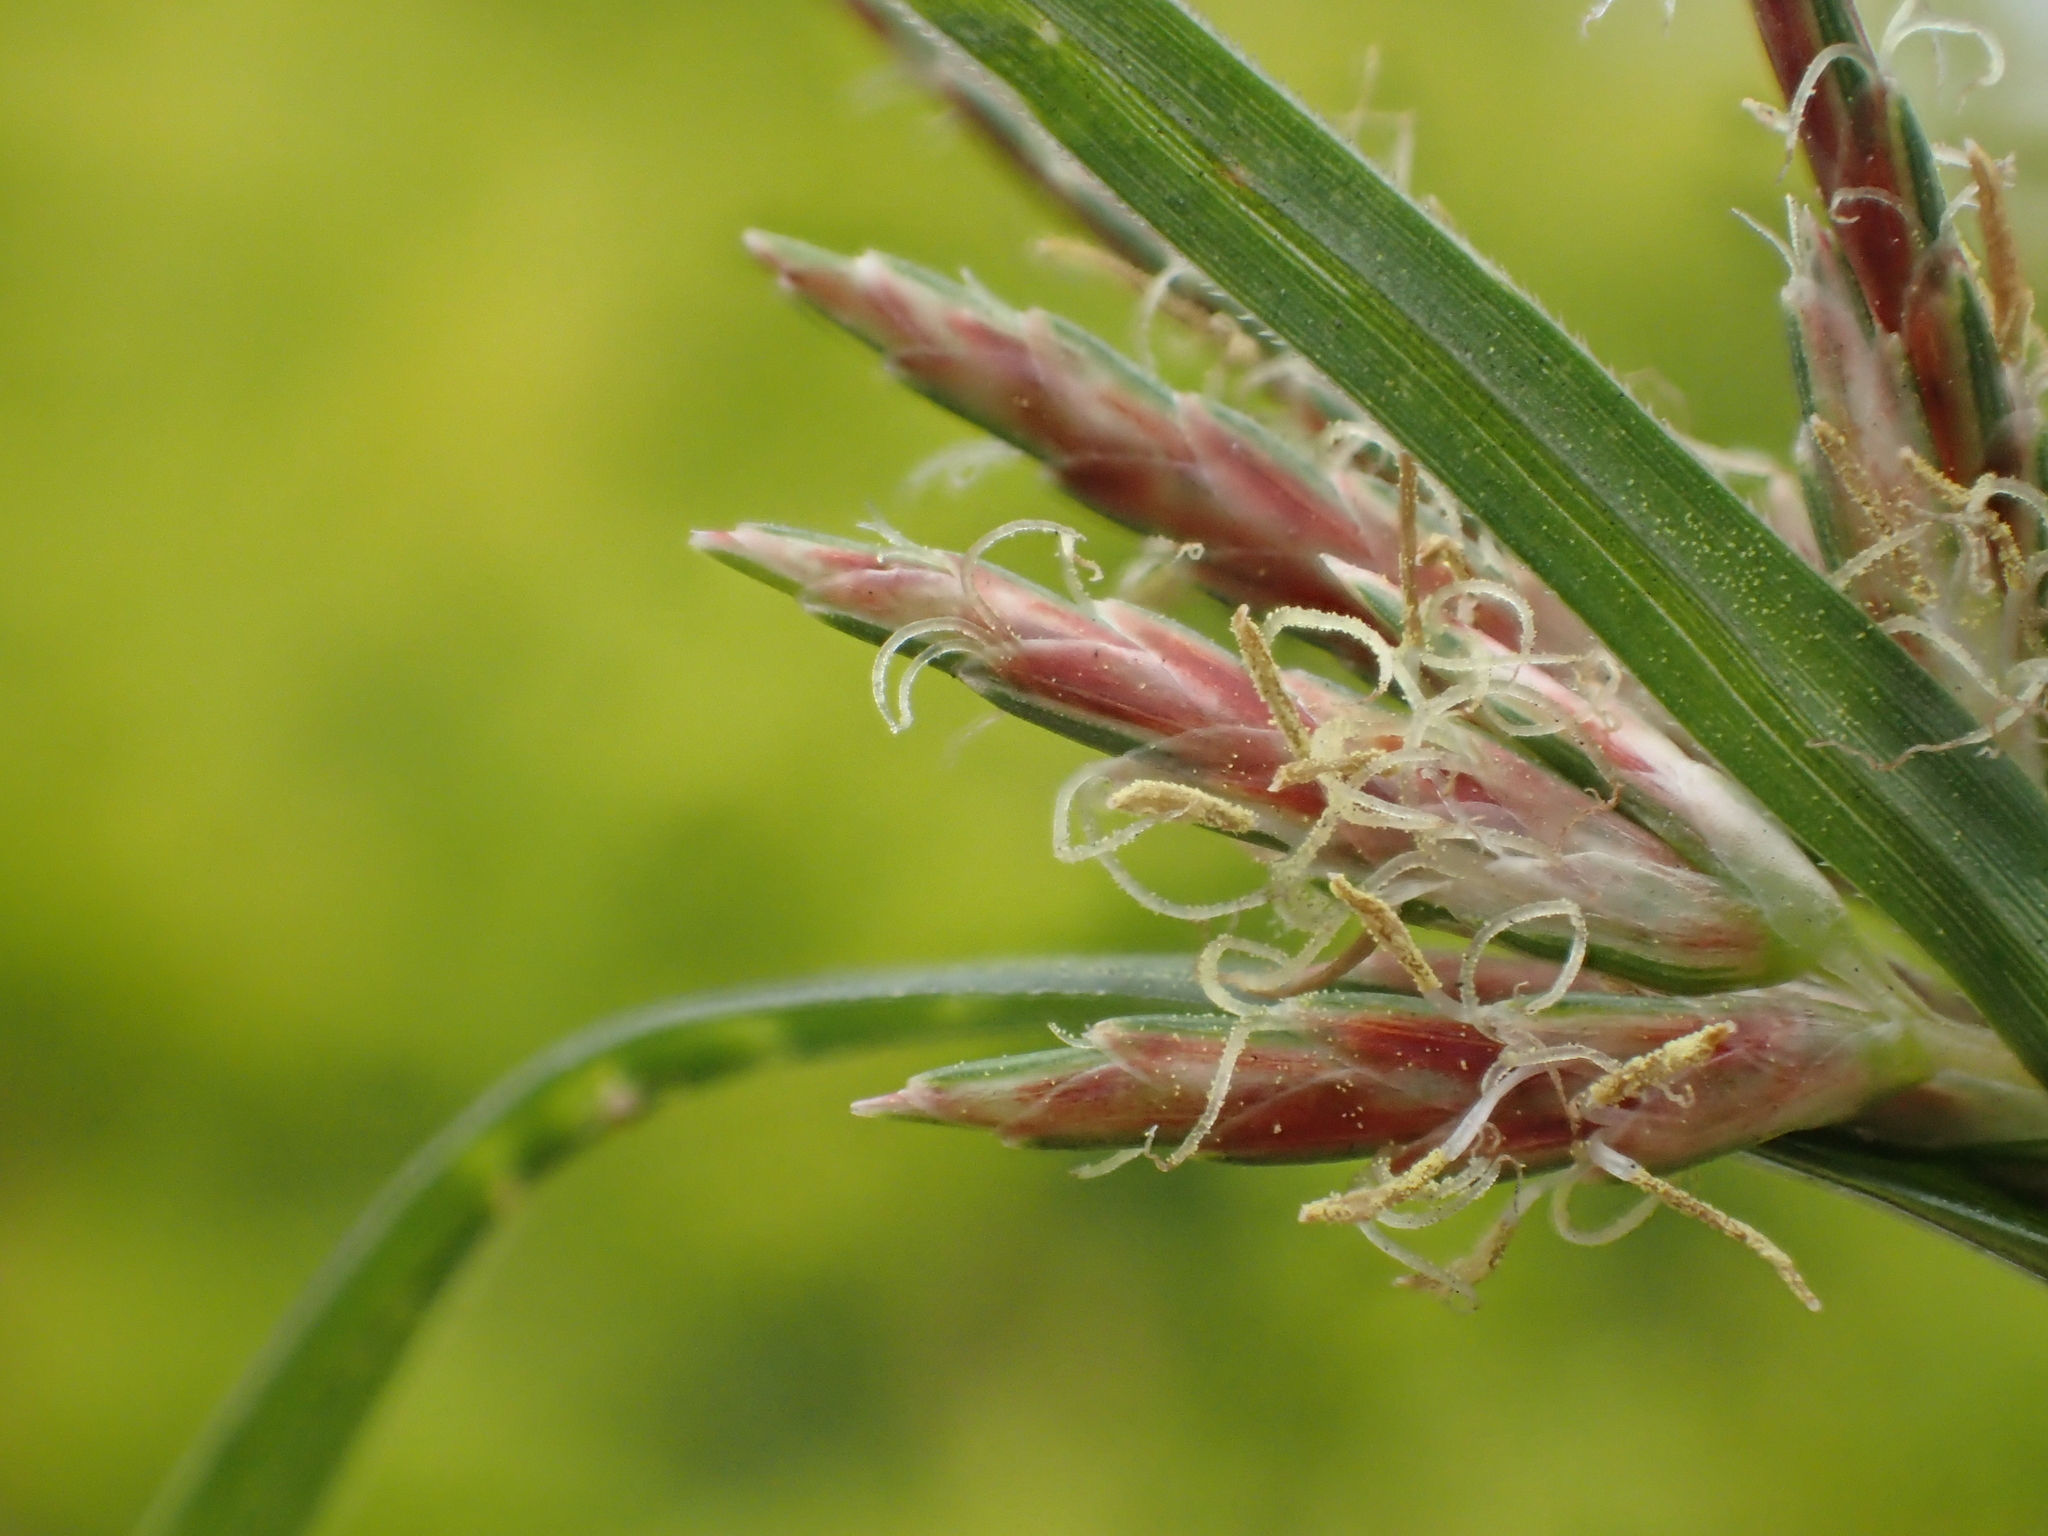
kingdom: Plantae
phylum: Tracheophyta
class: Liliopsida
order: Poales
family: Cyperaceae
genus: Cyperus
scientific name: Cyperus rotundus
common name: Nutgrass
